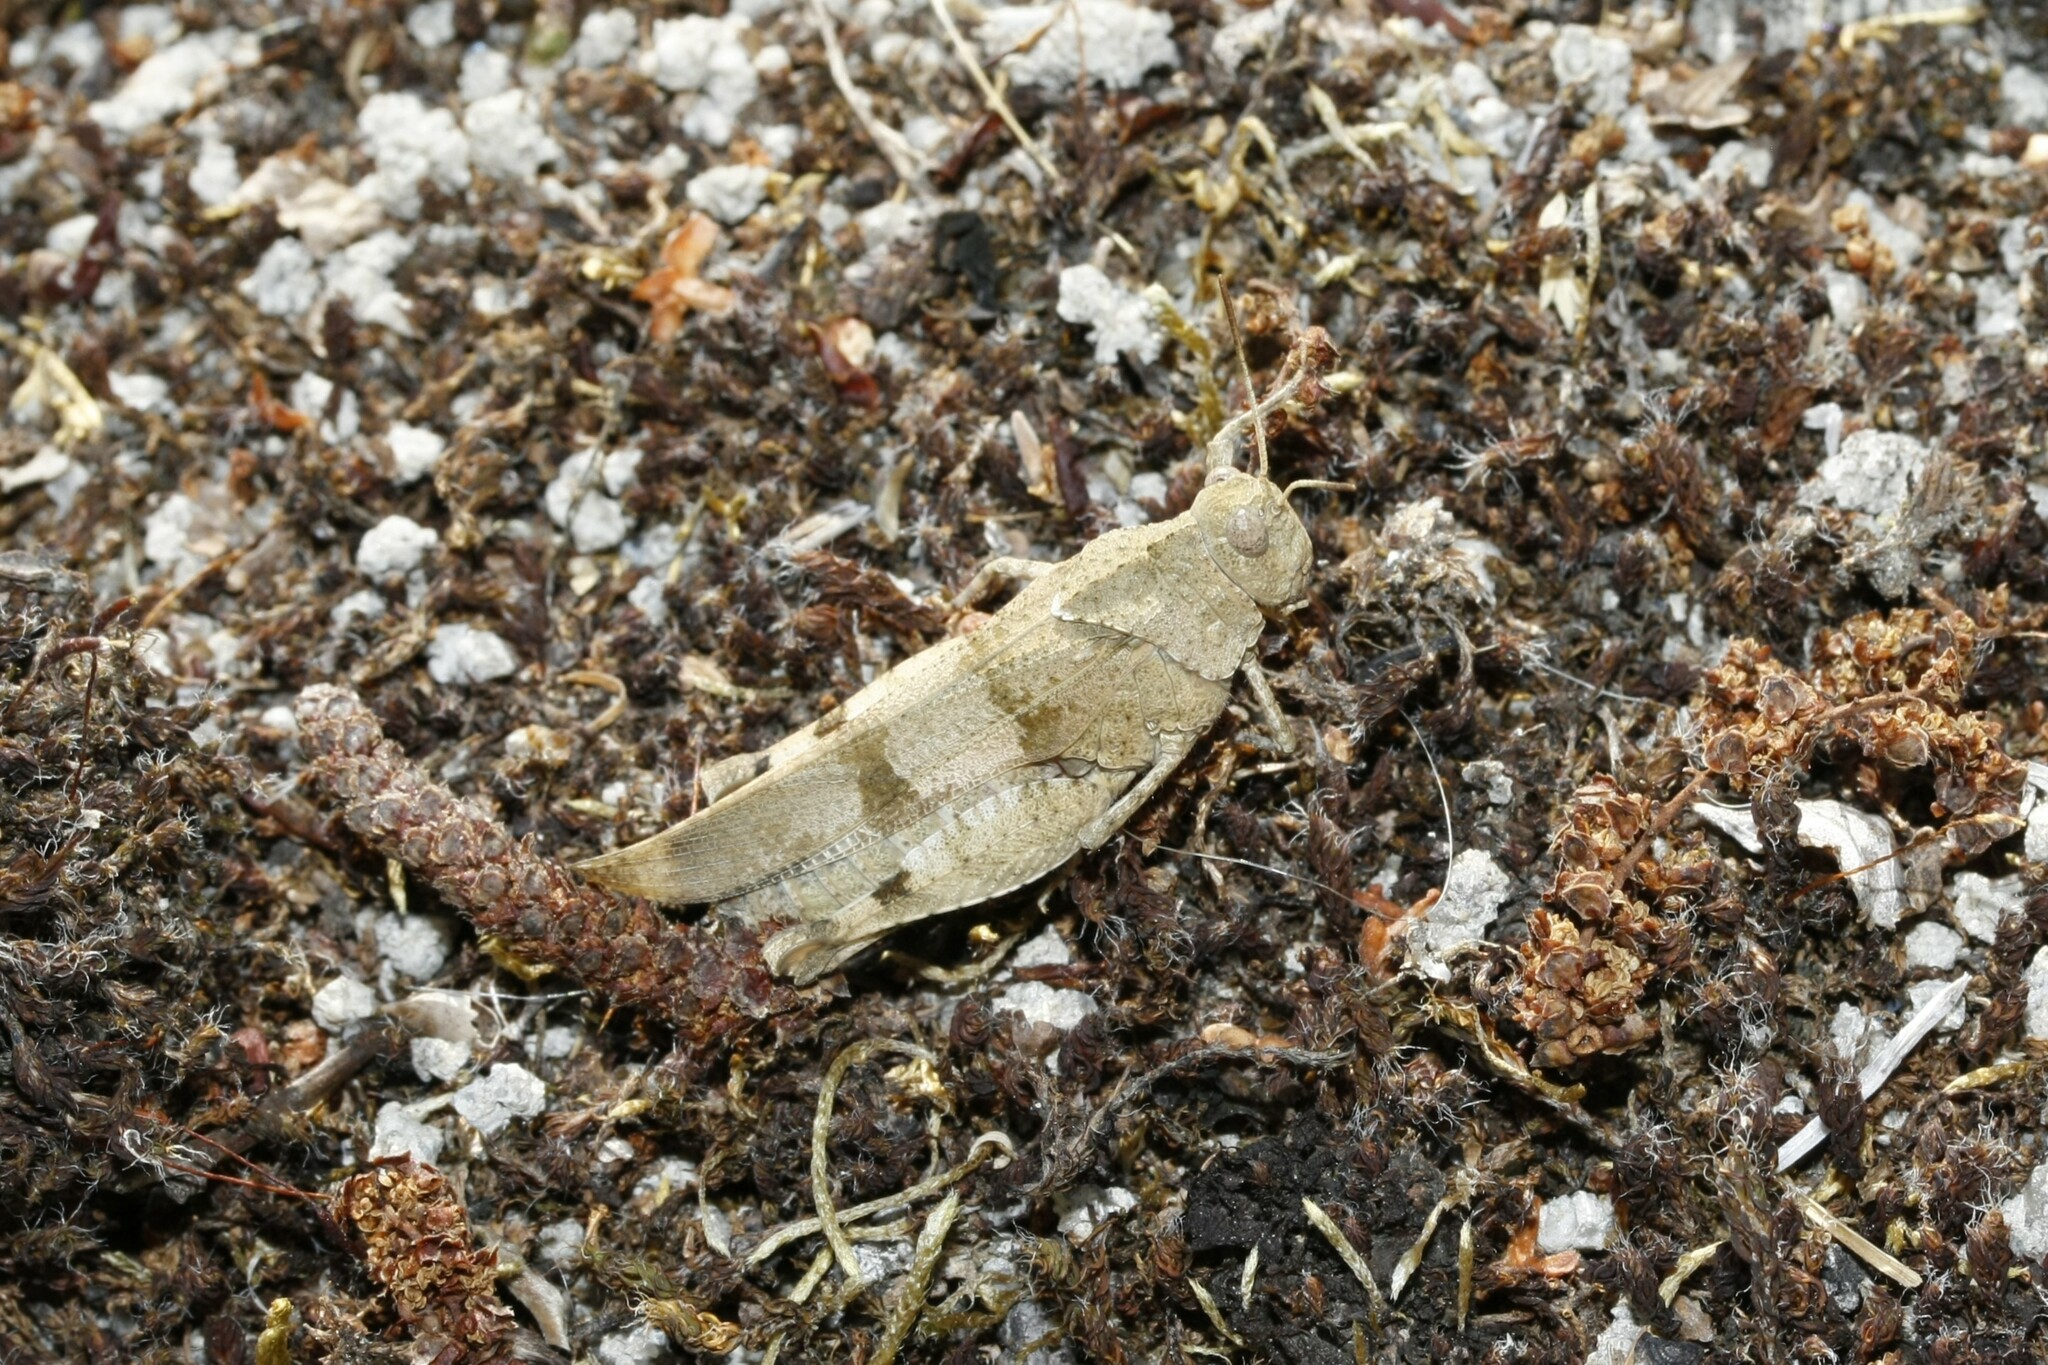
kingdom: Animalia
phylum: Arthropoda
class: Insecta
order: Orthoptera
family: Acrididae
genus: Oedipoda
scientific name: Oedipoda caerulescens
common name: Blue-winged grasshopper
